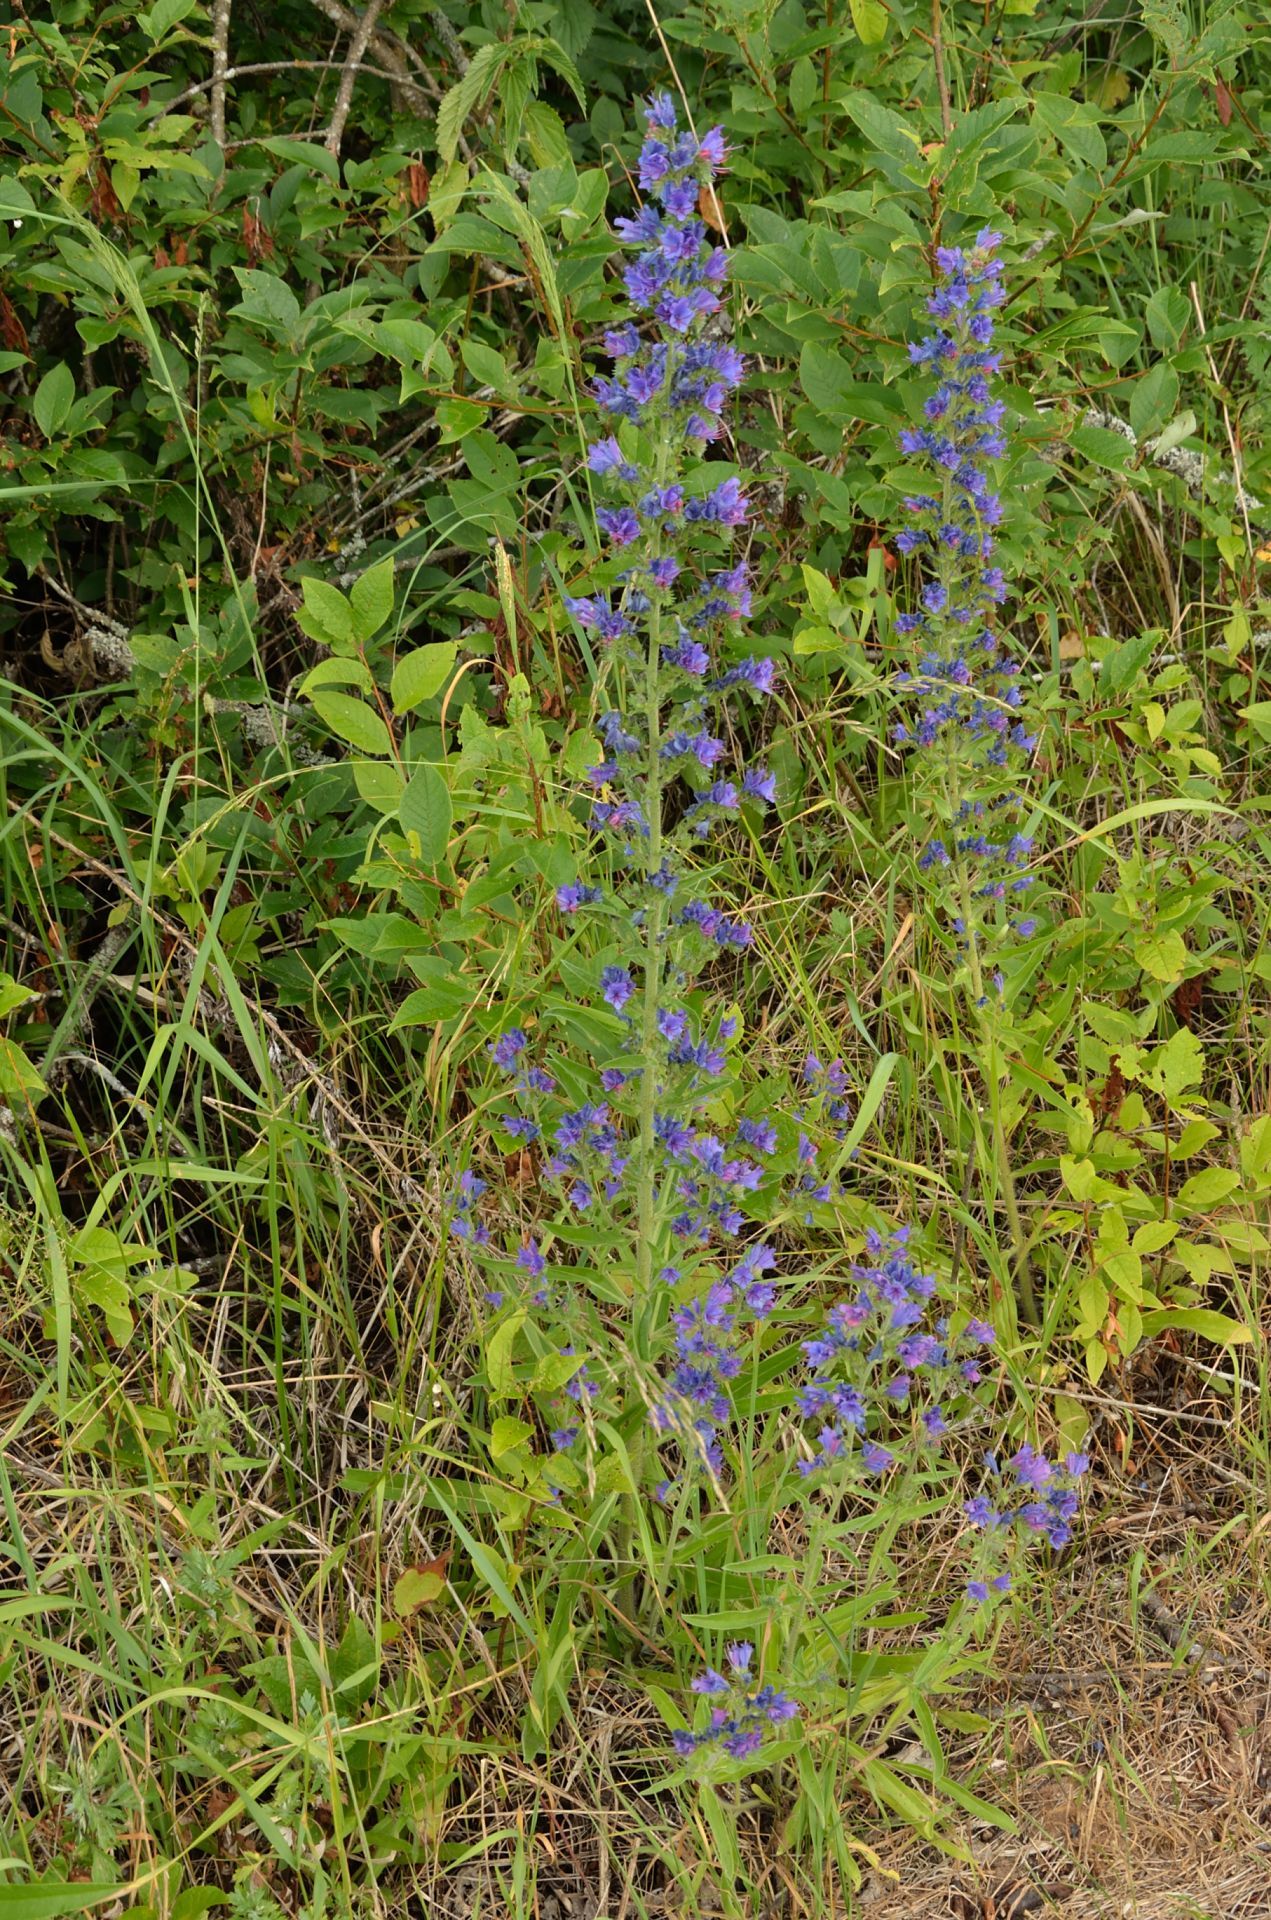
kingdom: Plantae
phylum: Tracheophyta
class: Magnoliopsida
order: Boraginales
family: Boraginaceae
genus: Echium
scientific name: Echium vulgare
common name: Common viper's bugloss
